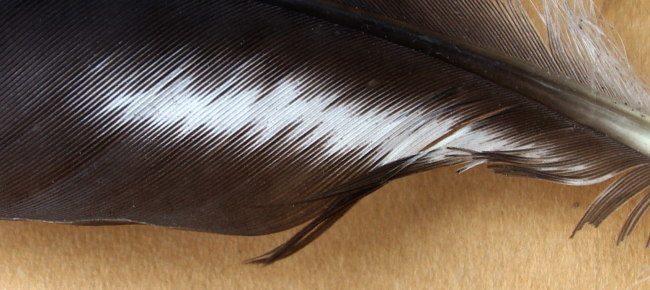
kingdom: Animalia
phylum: Chordata
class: Aves
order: Passeriformes
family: Corvidae
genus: Corvus
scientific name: Corvus cornix
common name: Hooded crow
